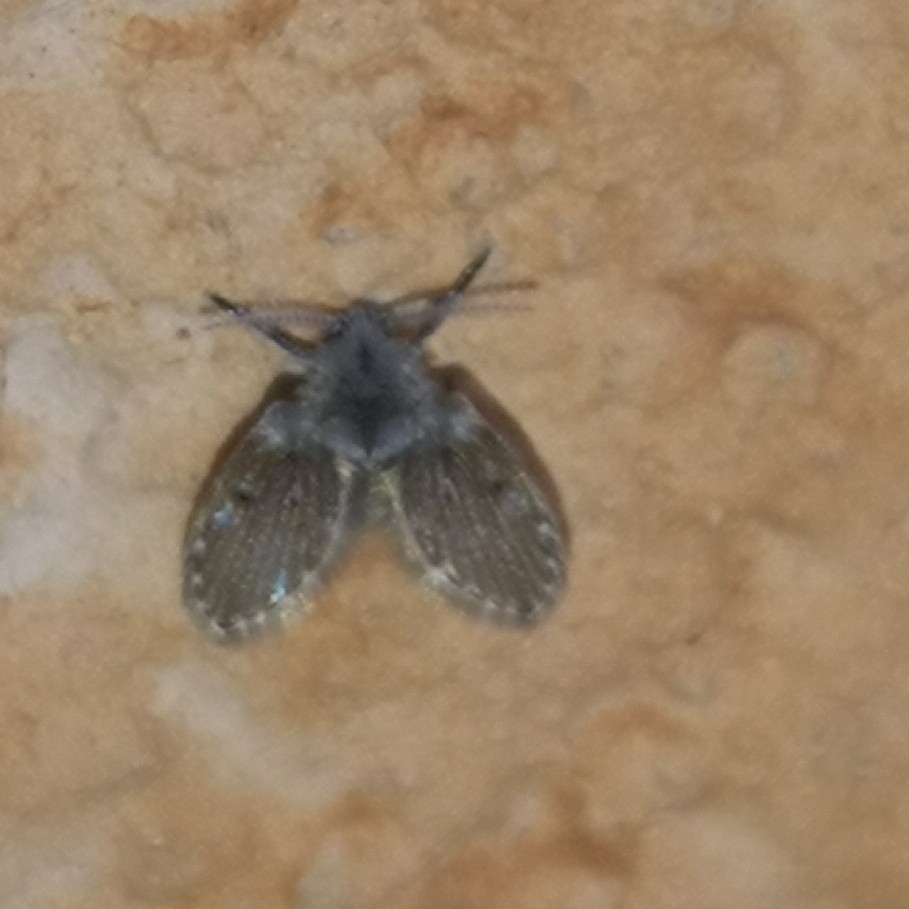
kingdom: Animalia
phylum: Arthropoda
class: Insecta
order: Diptera
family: Psychodidae
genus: Clogmia
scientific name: Clogmia albipunctatus
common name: White-spotted moth fly
